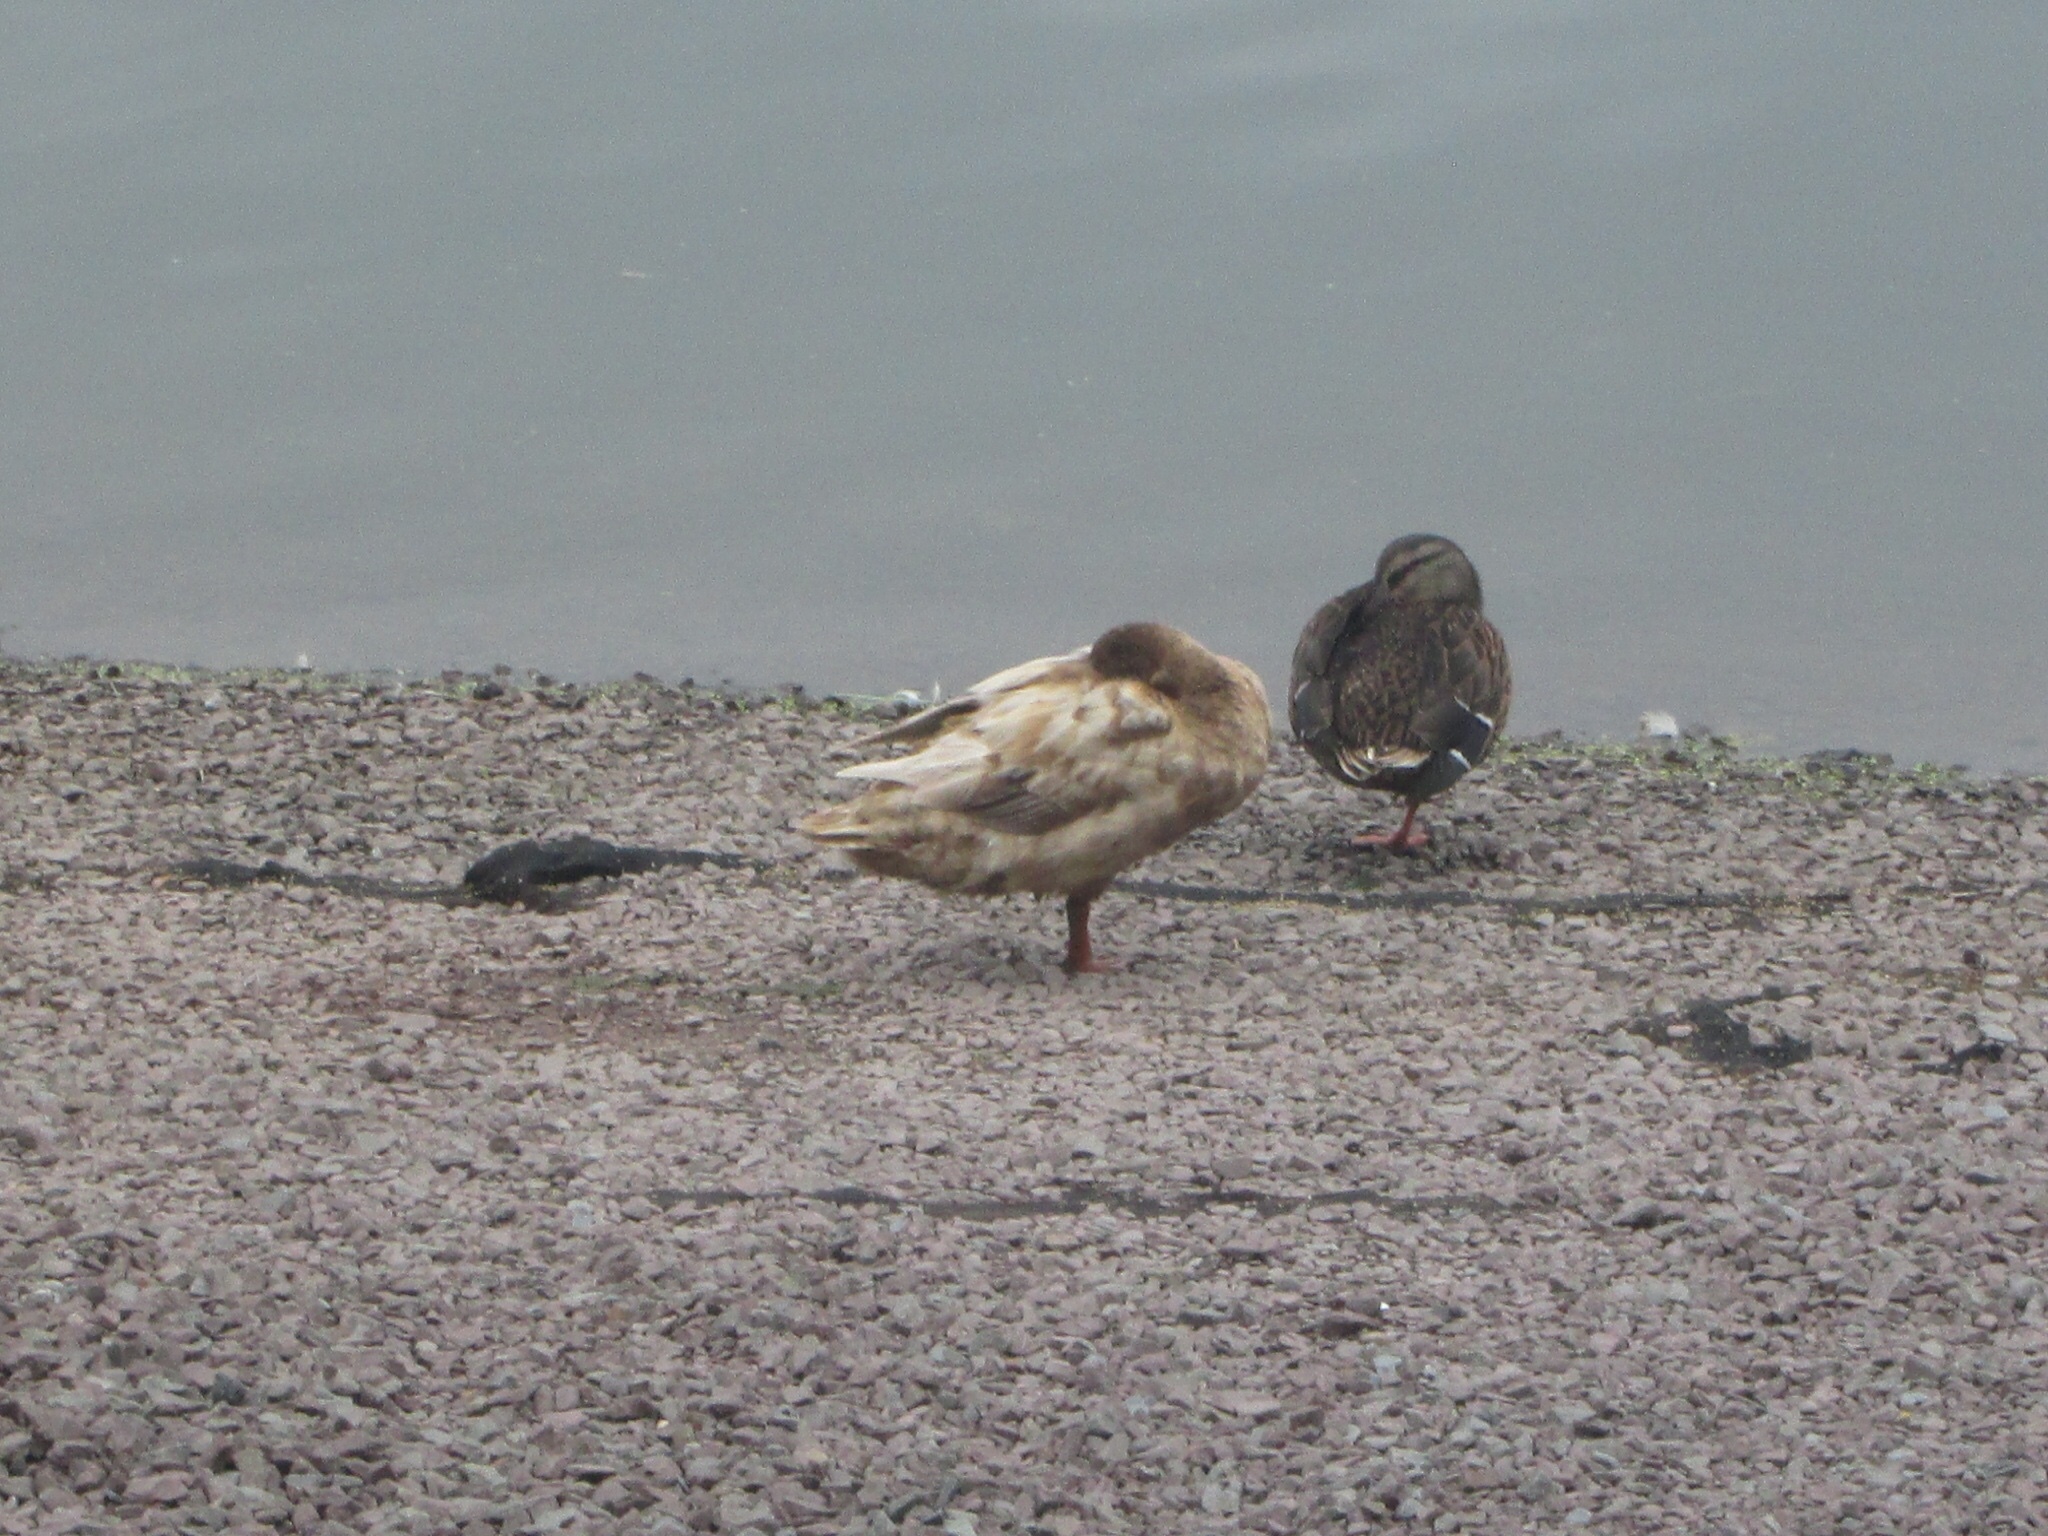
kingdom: Animalia
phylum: Chordata
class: Aves
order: Anseriformes
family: Anatidae
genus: Anas
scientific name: Anas platyrhynchos
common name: Mallard
